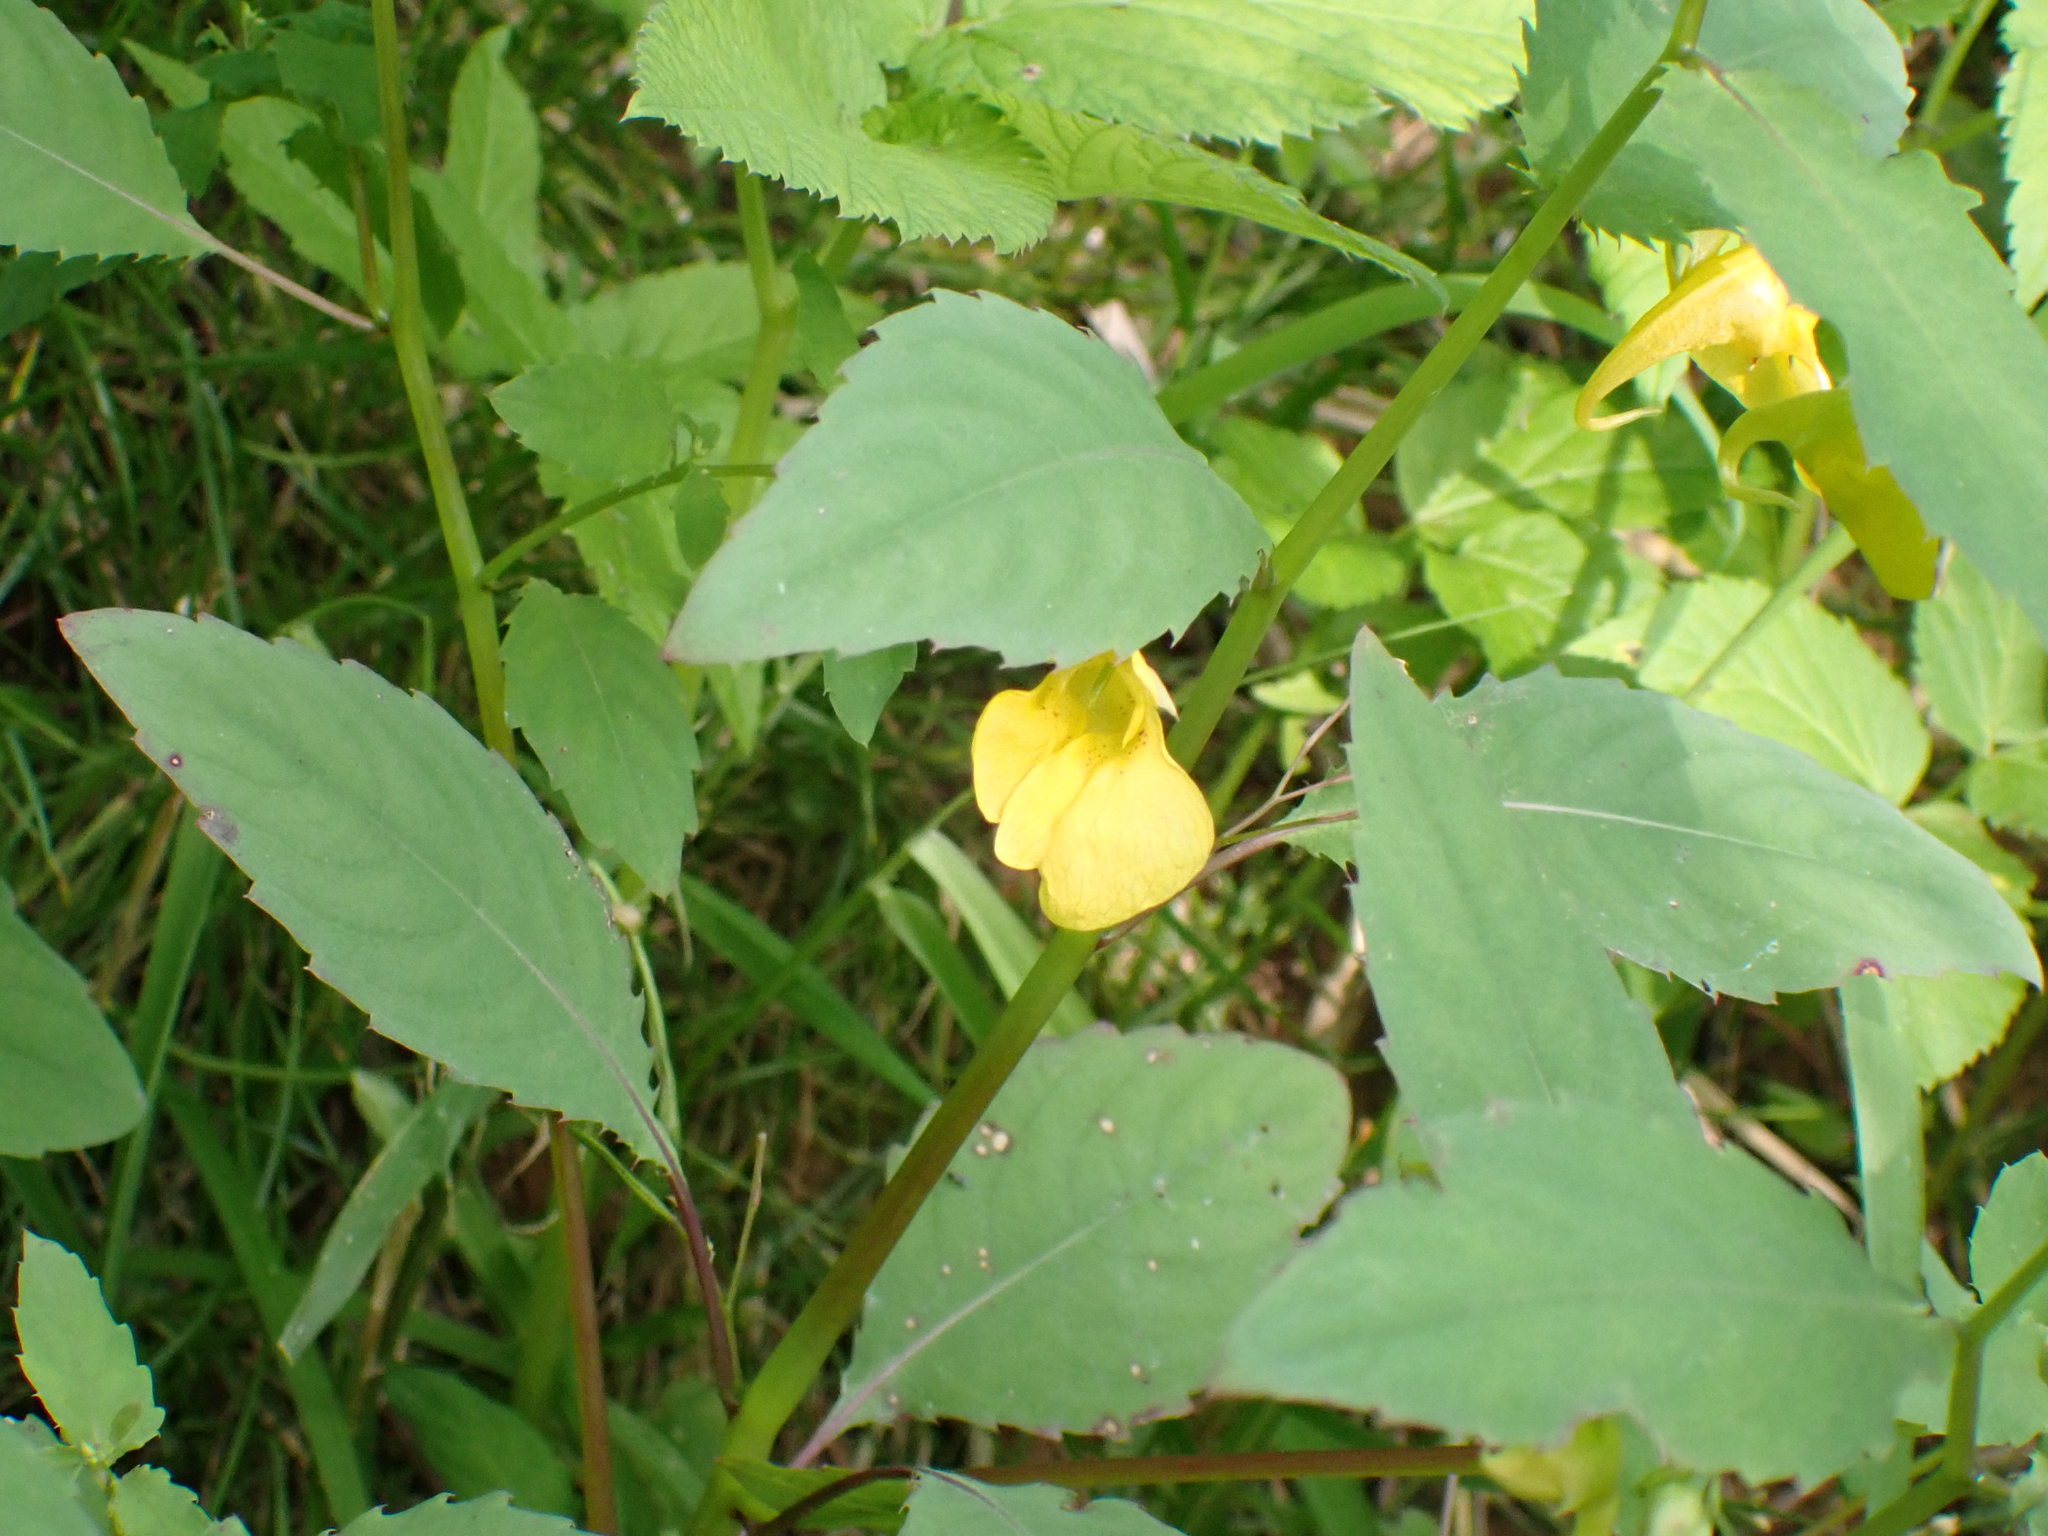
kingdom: Plantae
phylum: Tracheophyta
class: Magnoliopsida
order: Ericales
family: Balsaminaceae
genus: Impatiens
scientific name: Impatiens noli-tangere
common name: Touch-me-not balsam
